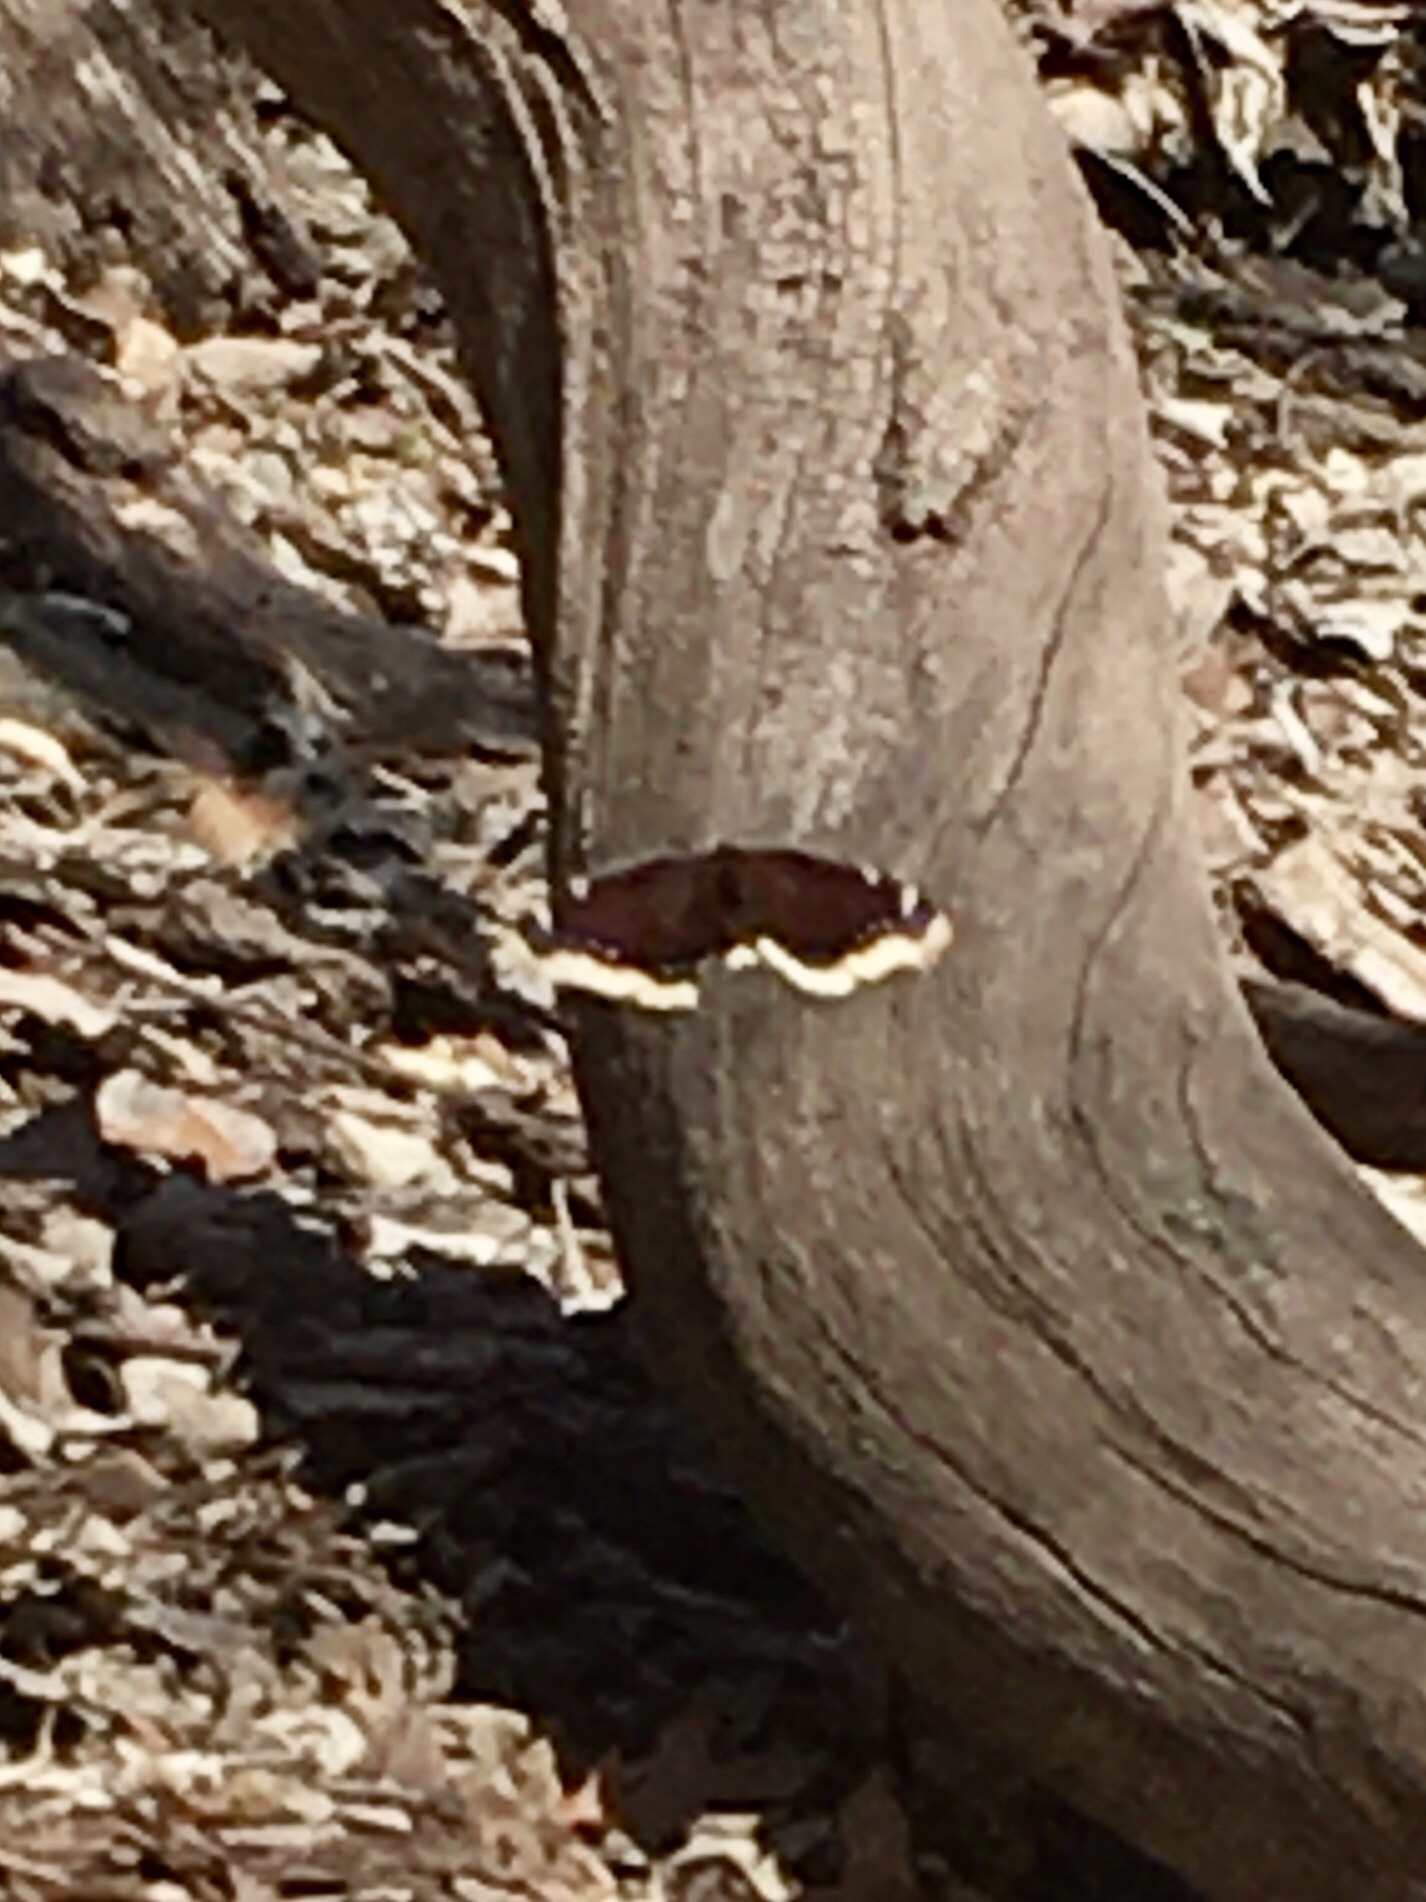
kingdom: Animalia
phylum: Arthropoda
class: Insecta
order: Lepidoptera
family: Nymphalidae
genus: Nymphalis
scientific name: Nymphalis antiopa
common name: Camberwell beauty
